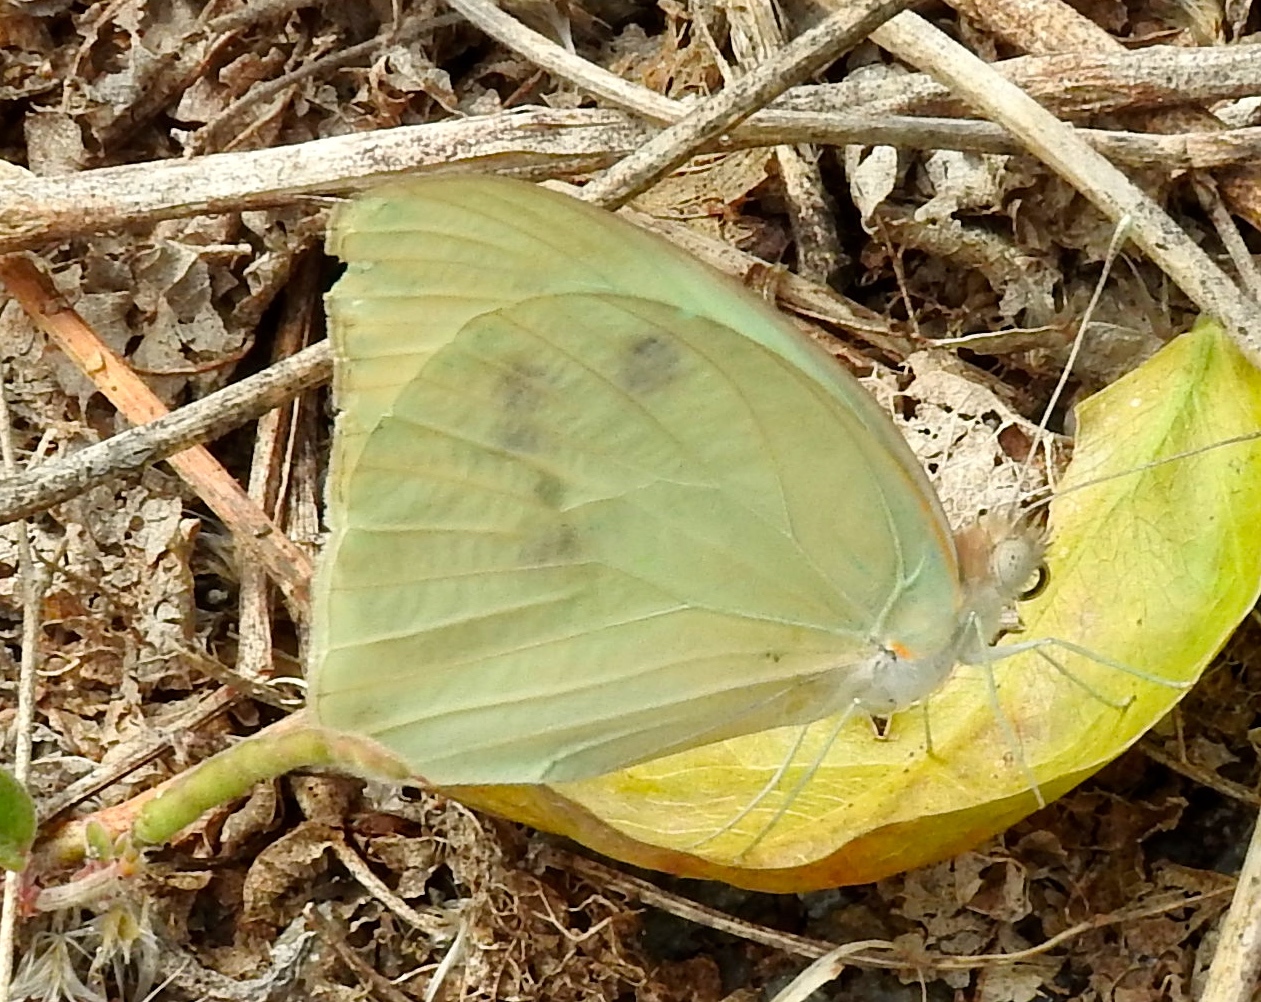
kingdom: Animalia
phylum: Arthropoda
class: Insecta
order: Lepidoptera
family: Pieridae
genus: Ganyra
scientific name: Ganyra josephina
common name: Giant white
